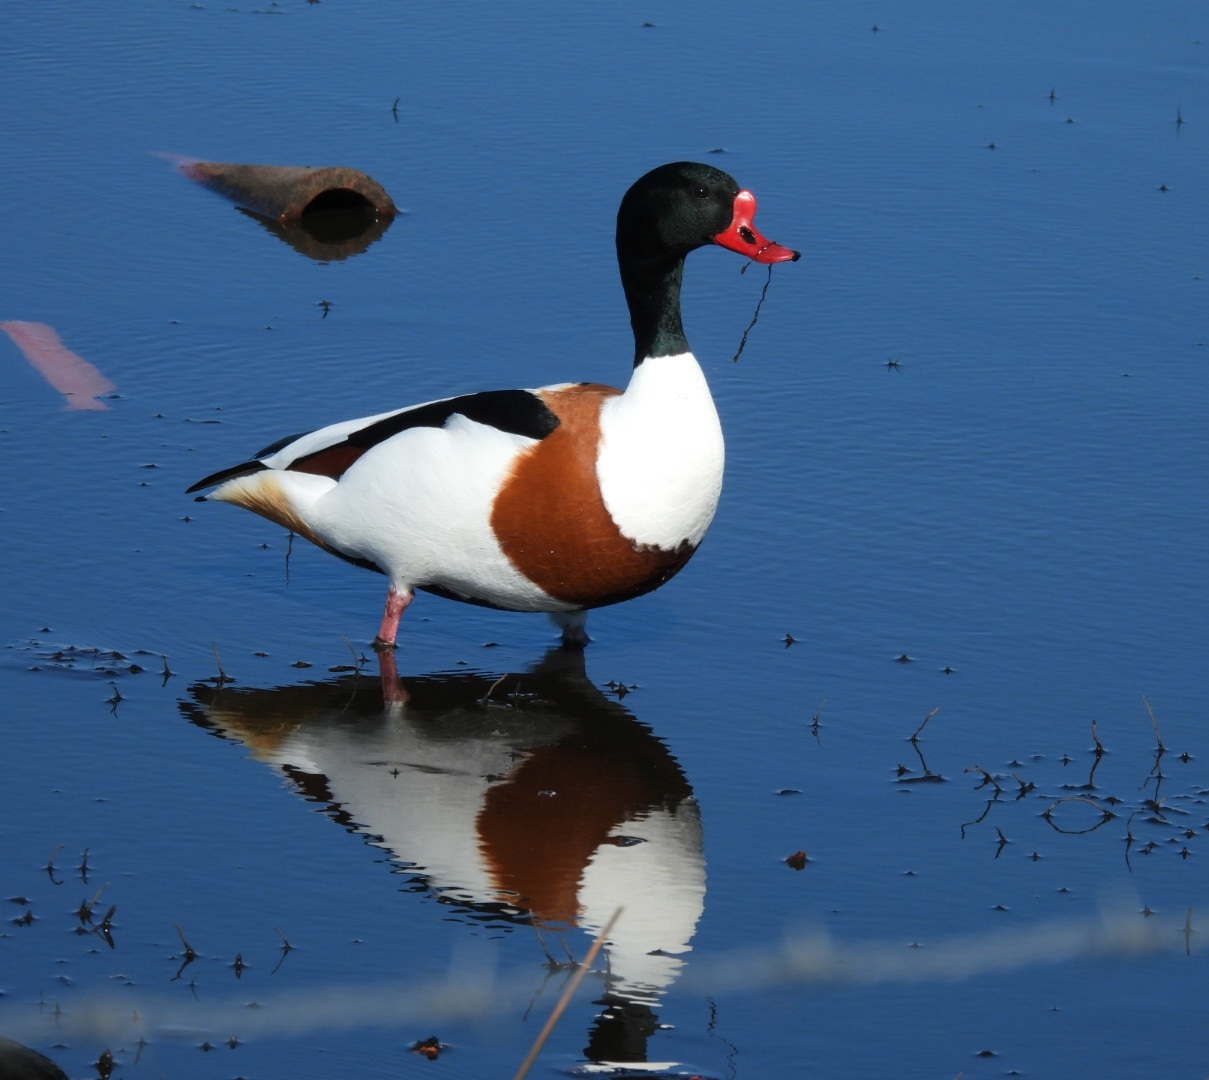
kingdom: Animalia
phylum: Chordata
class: Aves
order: Anseriformes
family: Anatidae
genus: Tadorna
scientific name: Tadorna tadorna
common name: Common shelduck
